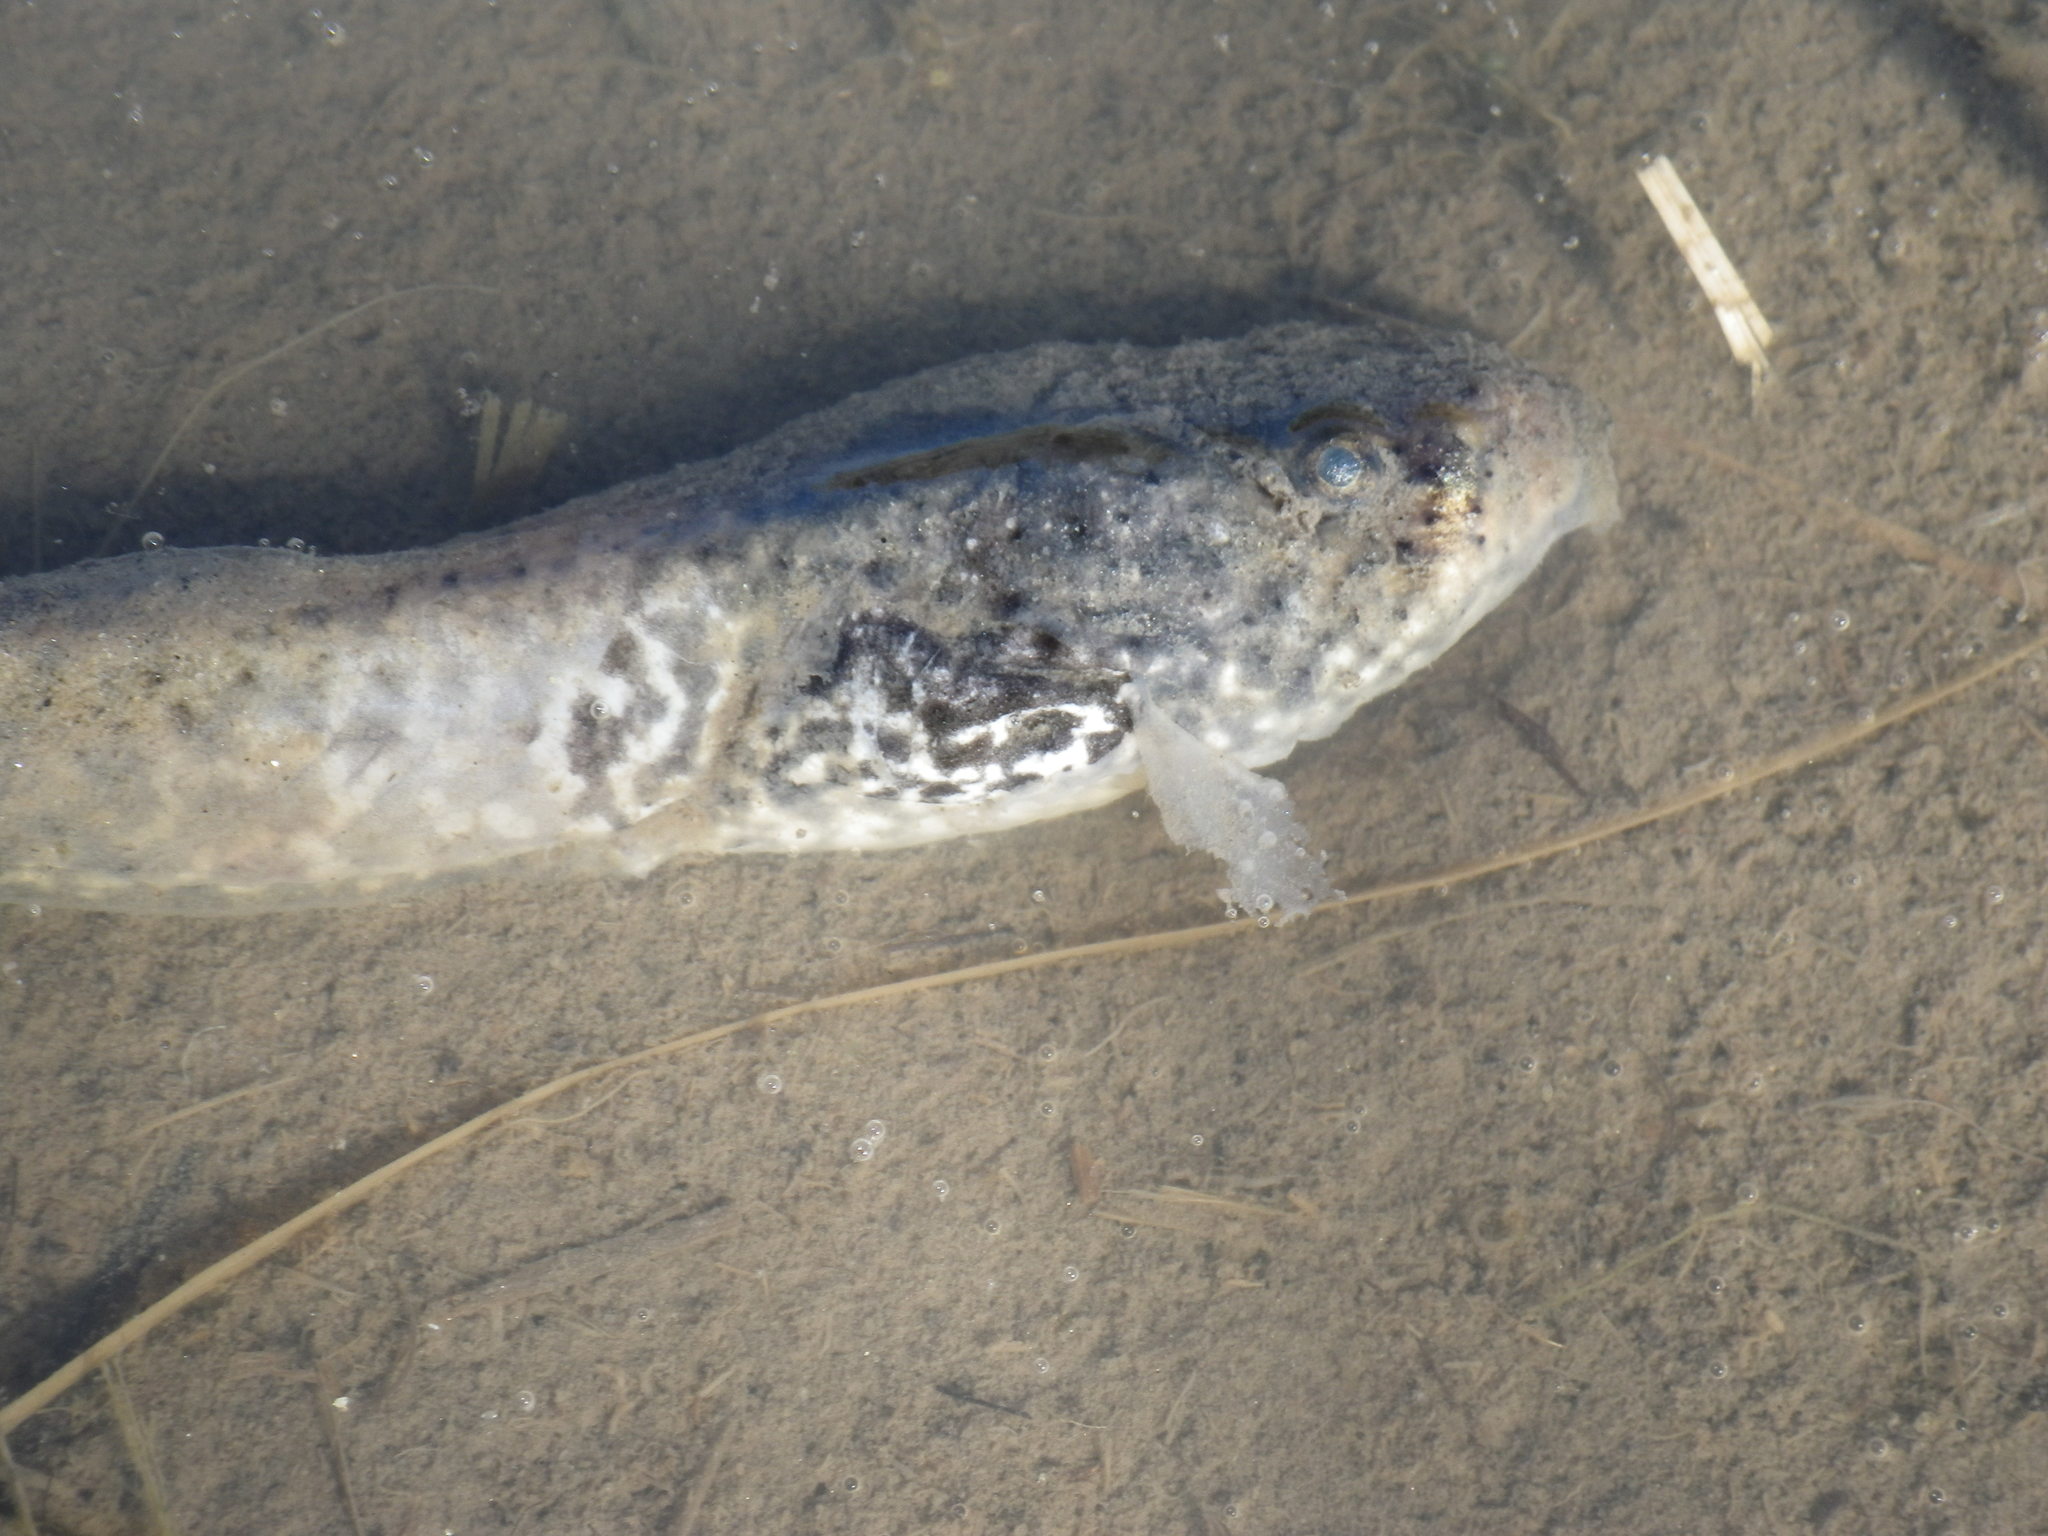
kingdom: Animalia
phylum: Chordata
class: Amphibia
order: Anura
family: Ranidae
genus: Lithobates
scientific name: Lithobates catesbeianus
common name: American bullfrog
